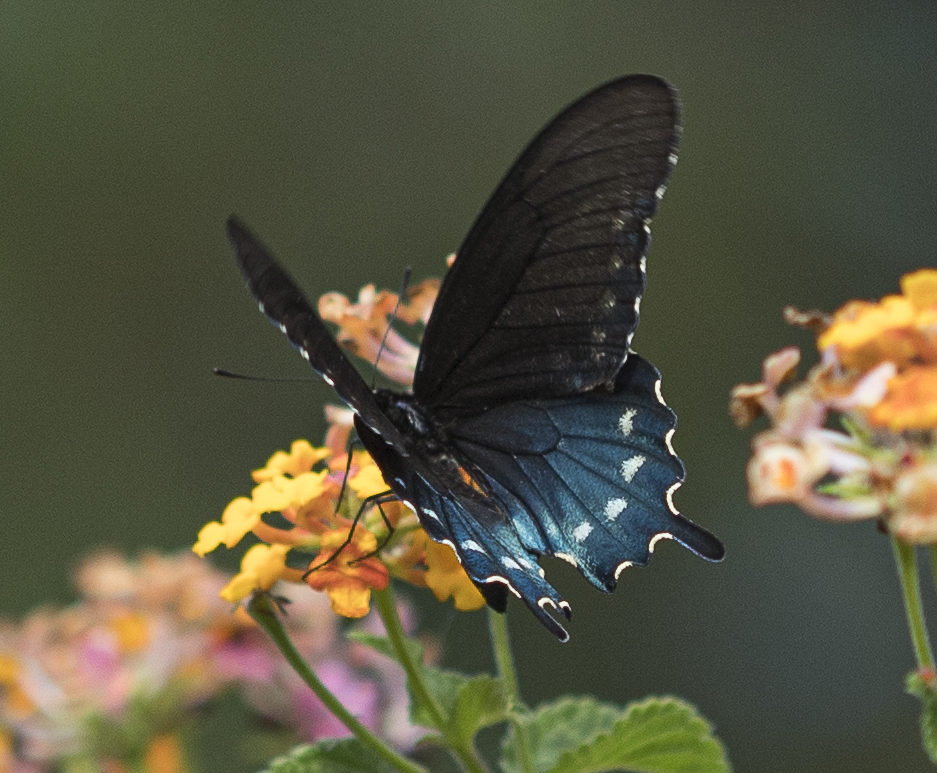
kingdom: Animalia
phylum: Arthropoda
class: Insecta
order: Lepidoptera
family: Papilionidae
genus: Battus
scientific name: Battus philenor
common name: Pipevine swallowtail
